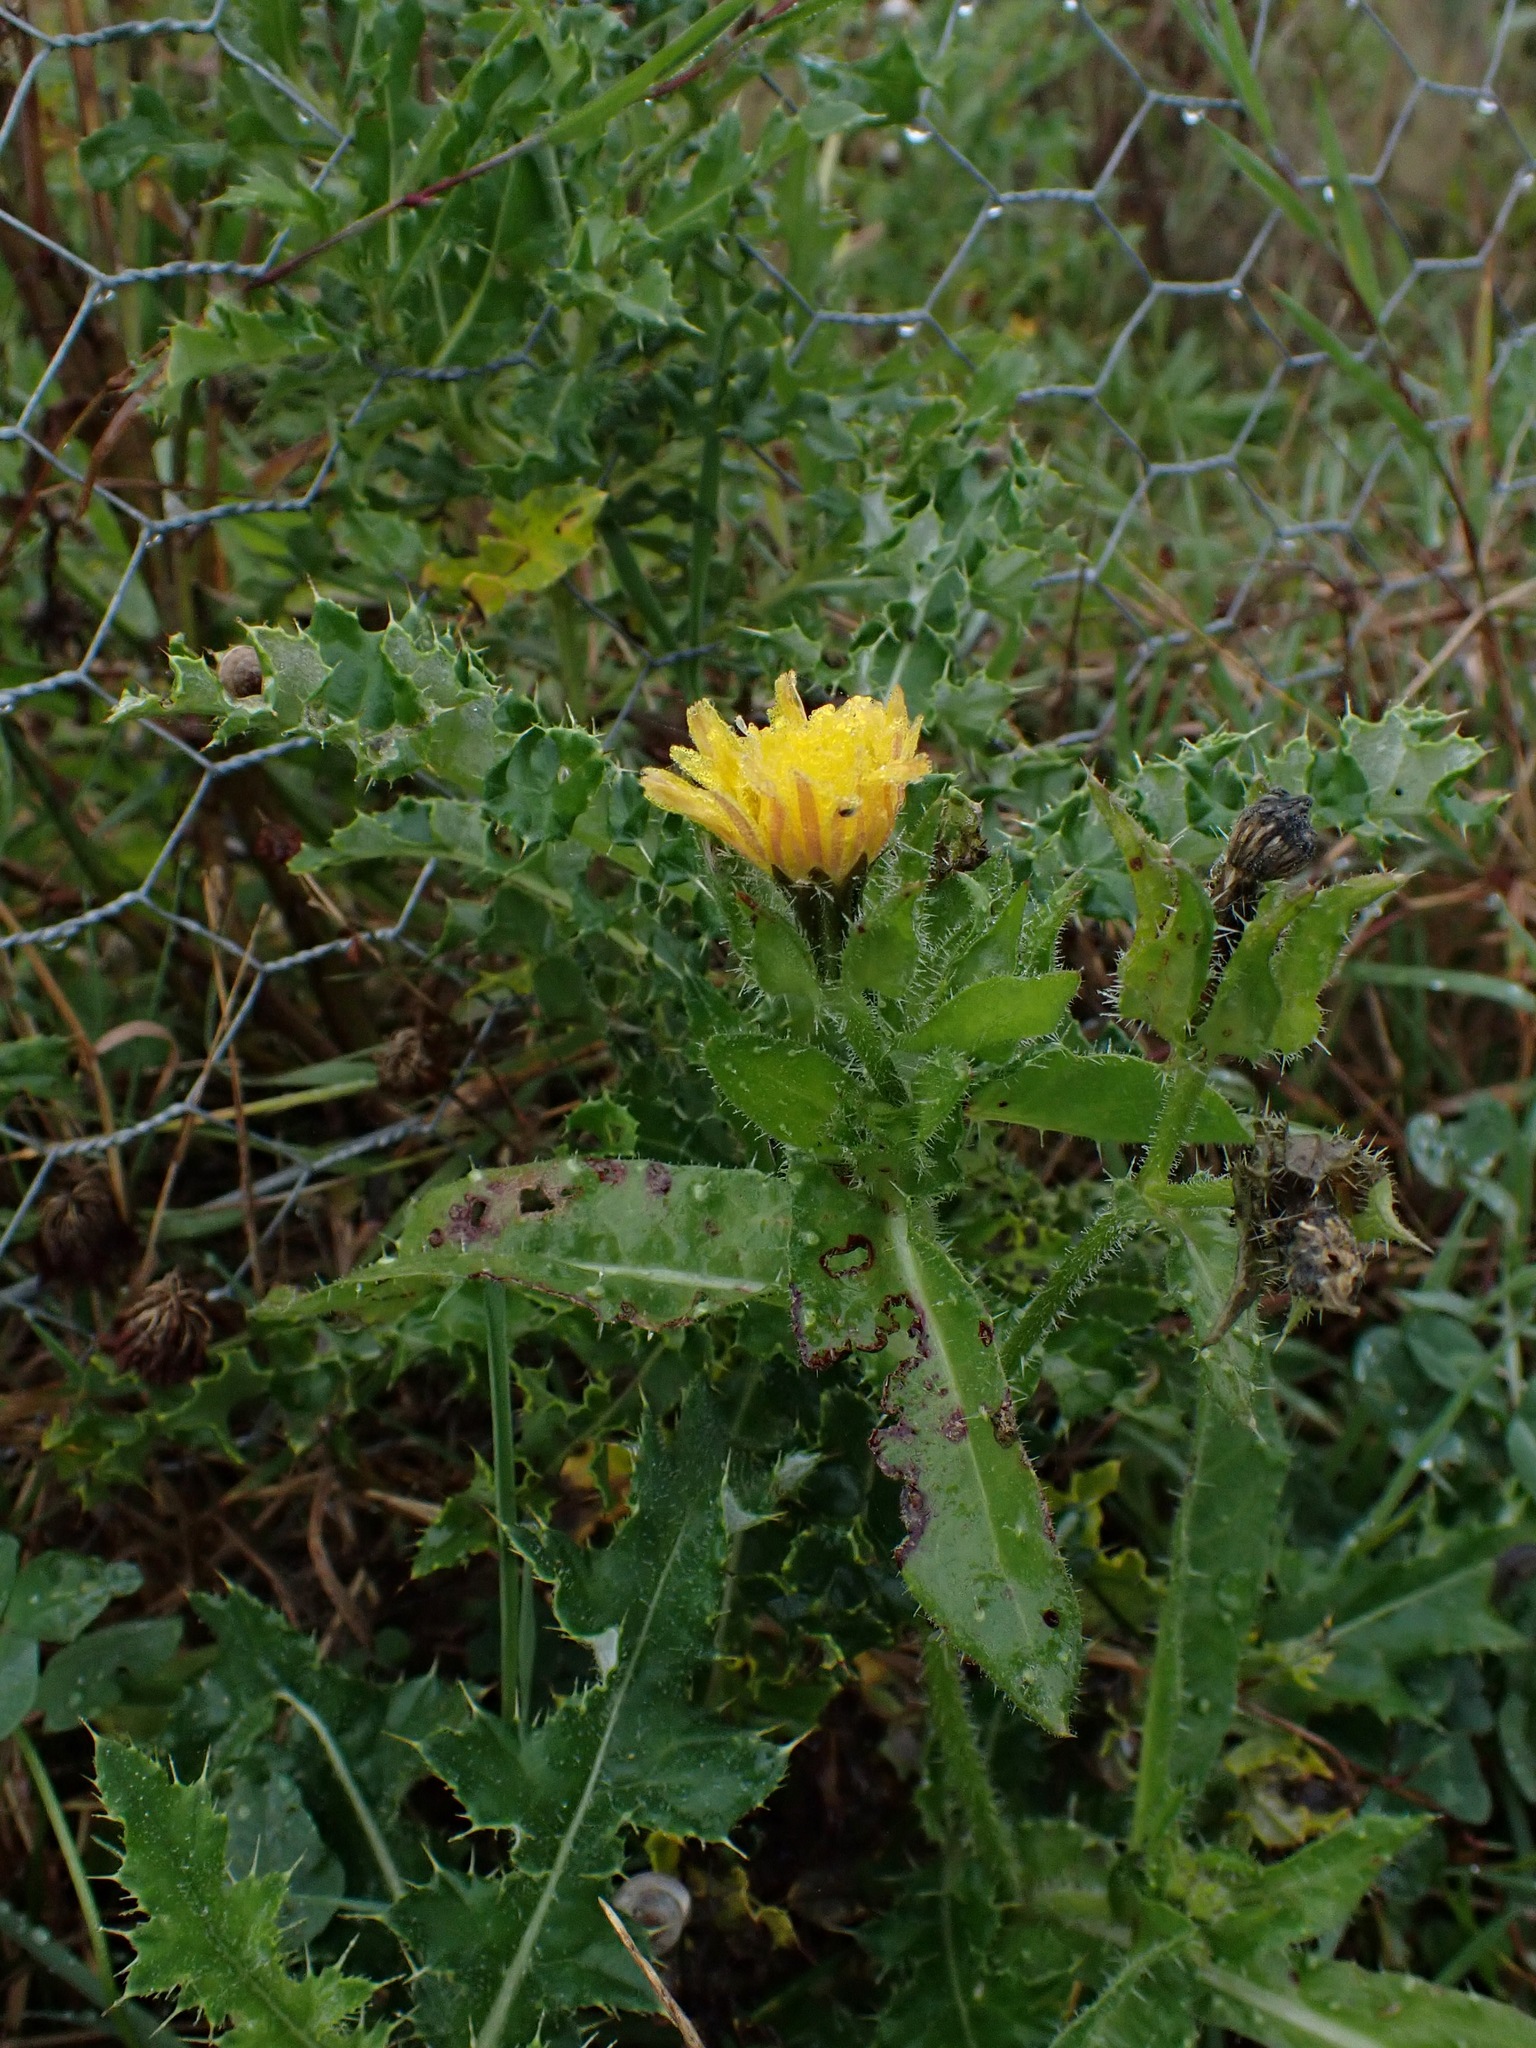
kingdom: Plantae
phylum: Tracheophyta
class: Magnoliopsida
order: Asterales
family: Asteraceae
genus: Helminthotheca
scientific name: Helminthotheca echioides
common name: Ox-tongue
